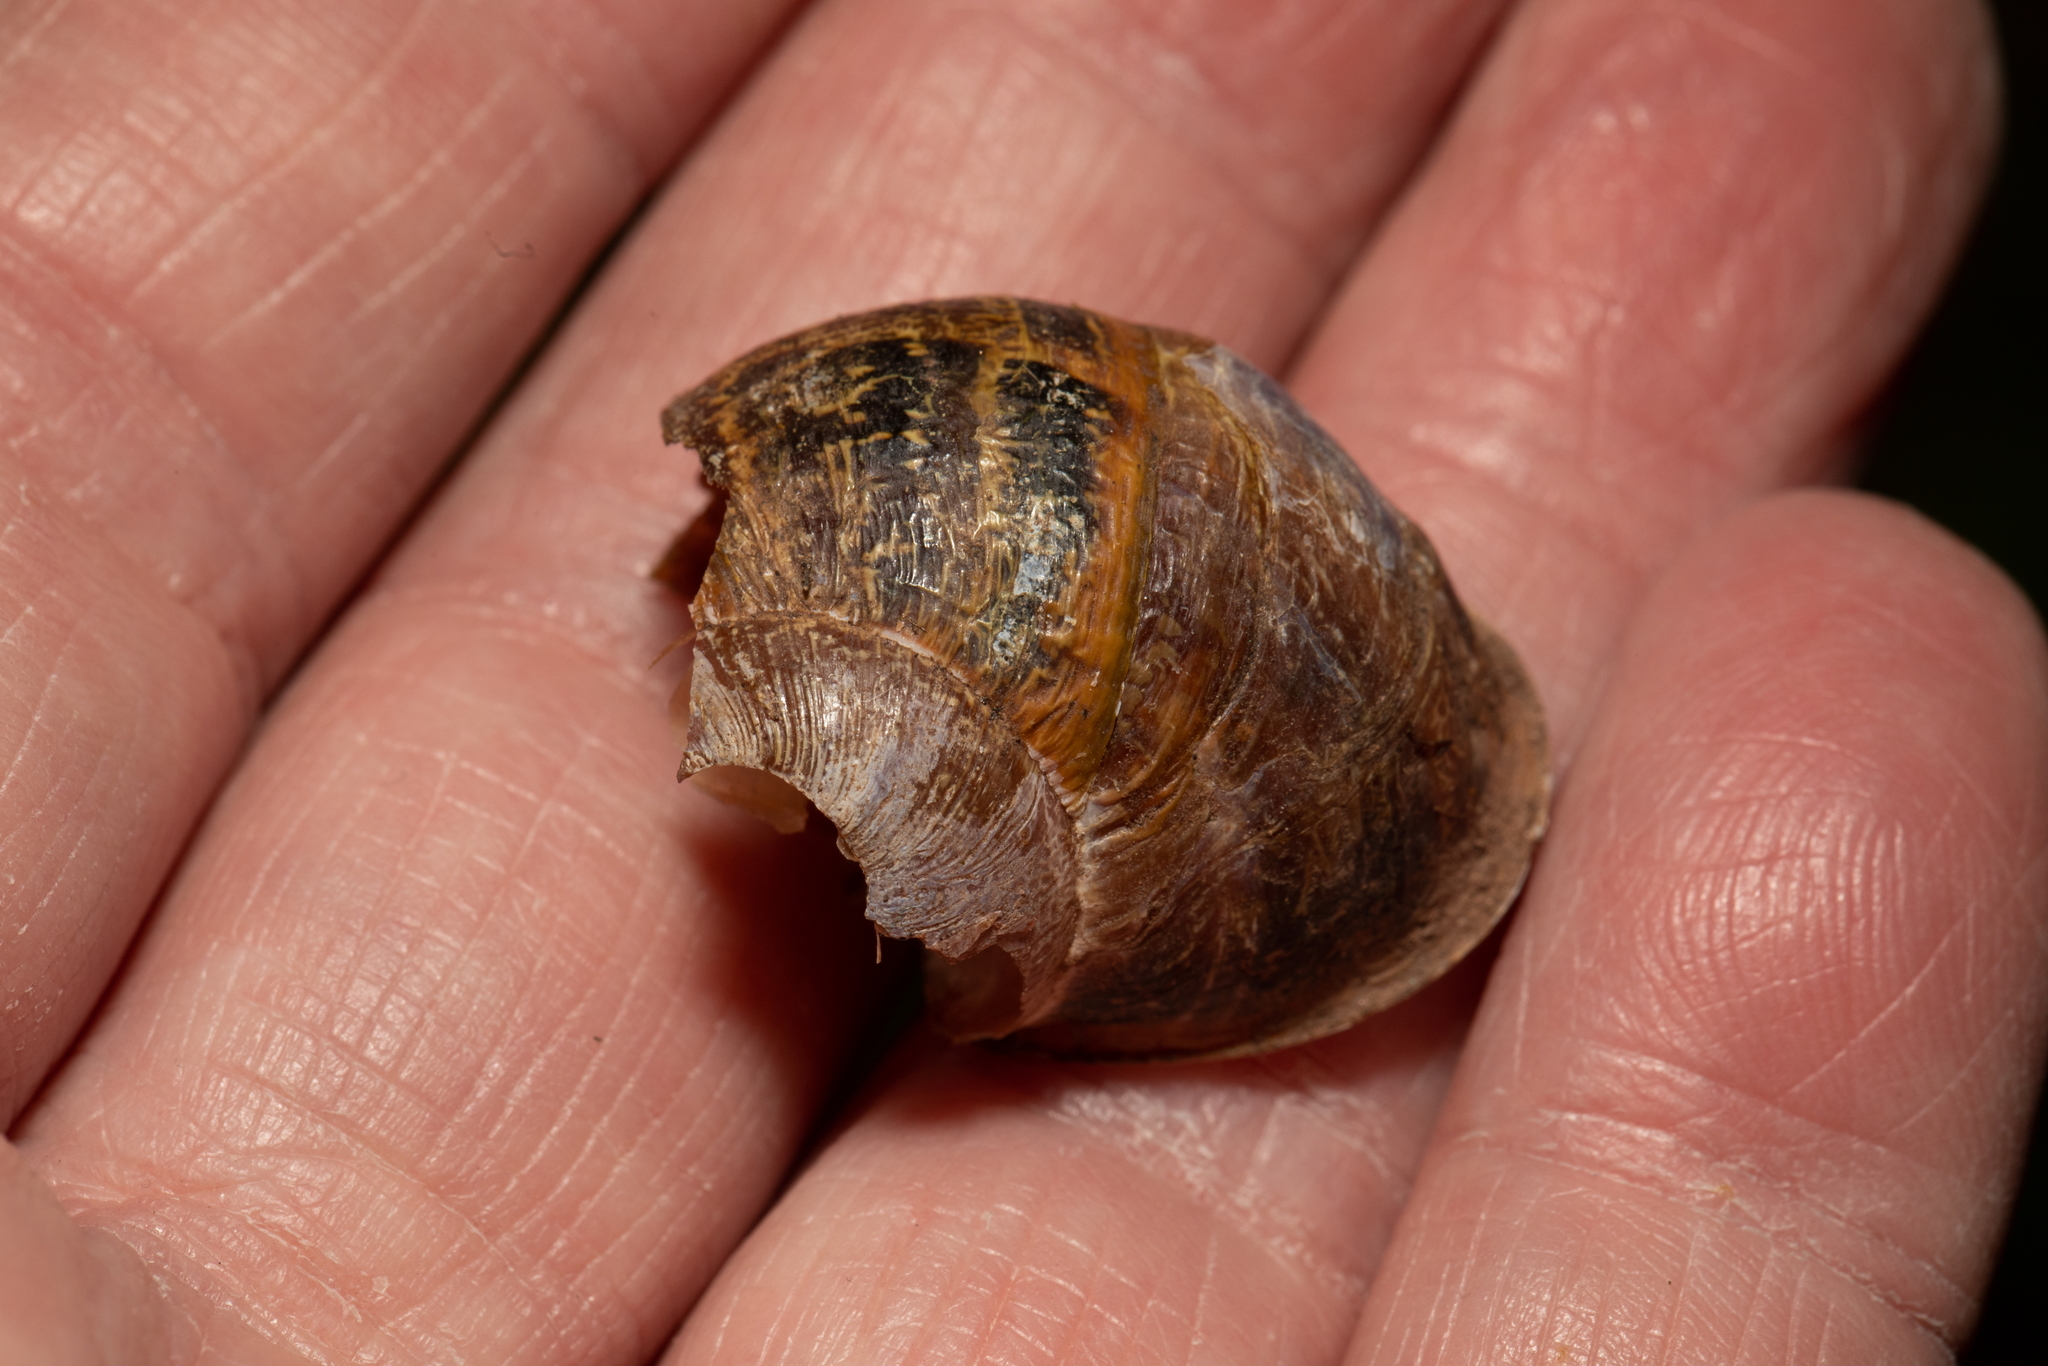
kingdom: Animalia
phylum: Mollusca
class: Gastropoda
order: Stylommatophora
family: Helicidae
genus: Cornu
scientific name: Cornu aspersum
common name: Brown garden snail
